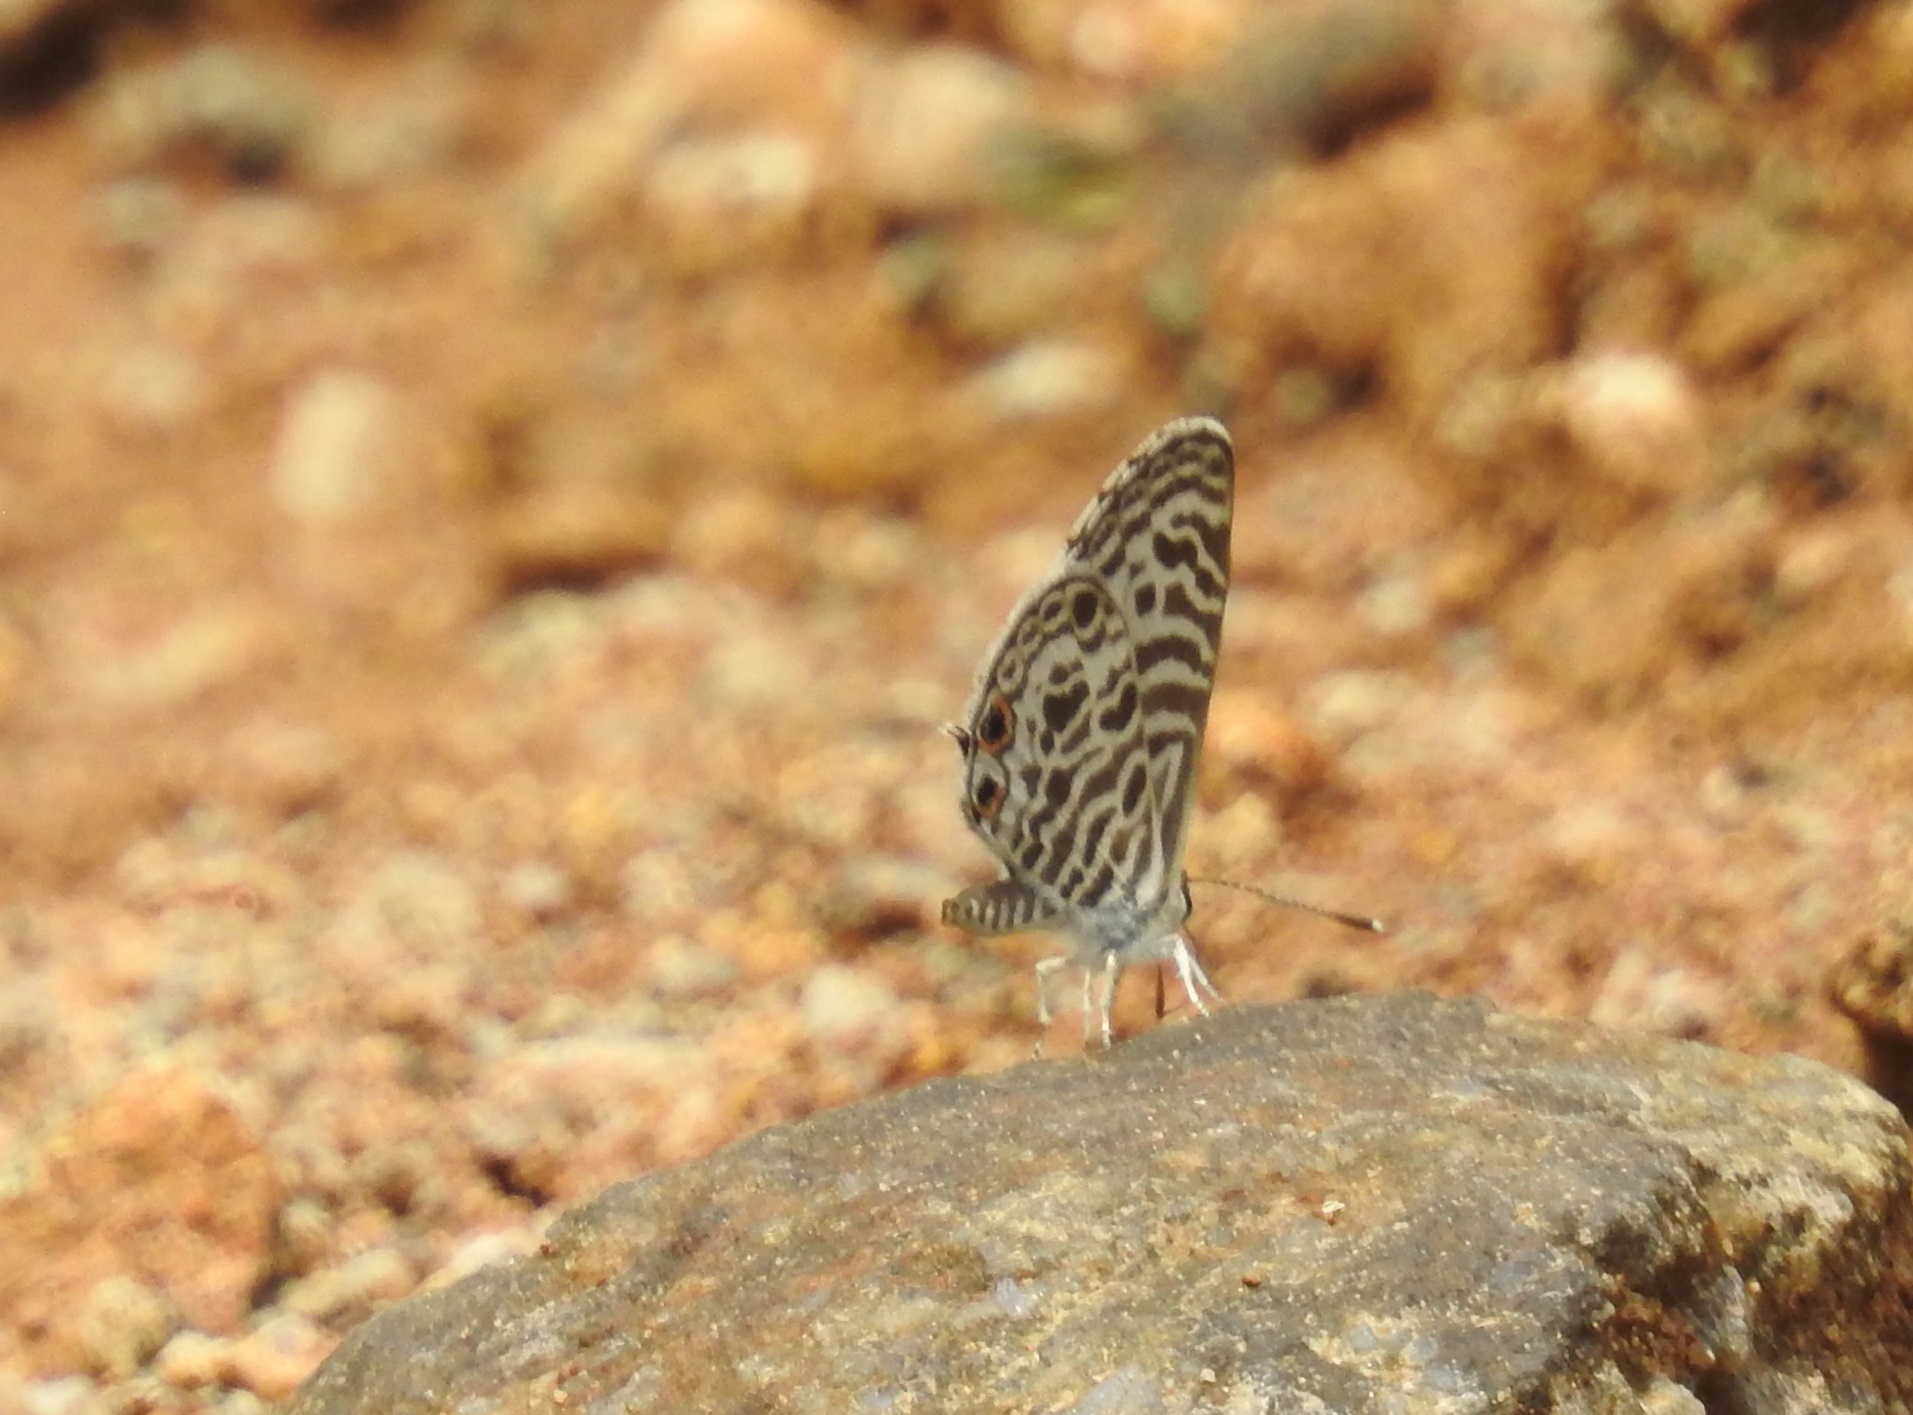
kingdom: Animalia
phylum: Arthropoda
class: Insecta
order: Lepidoptera
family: Lycaenidae
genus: Leptotes
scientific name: Leptotes plinius
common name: Zebra blue
